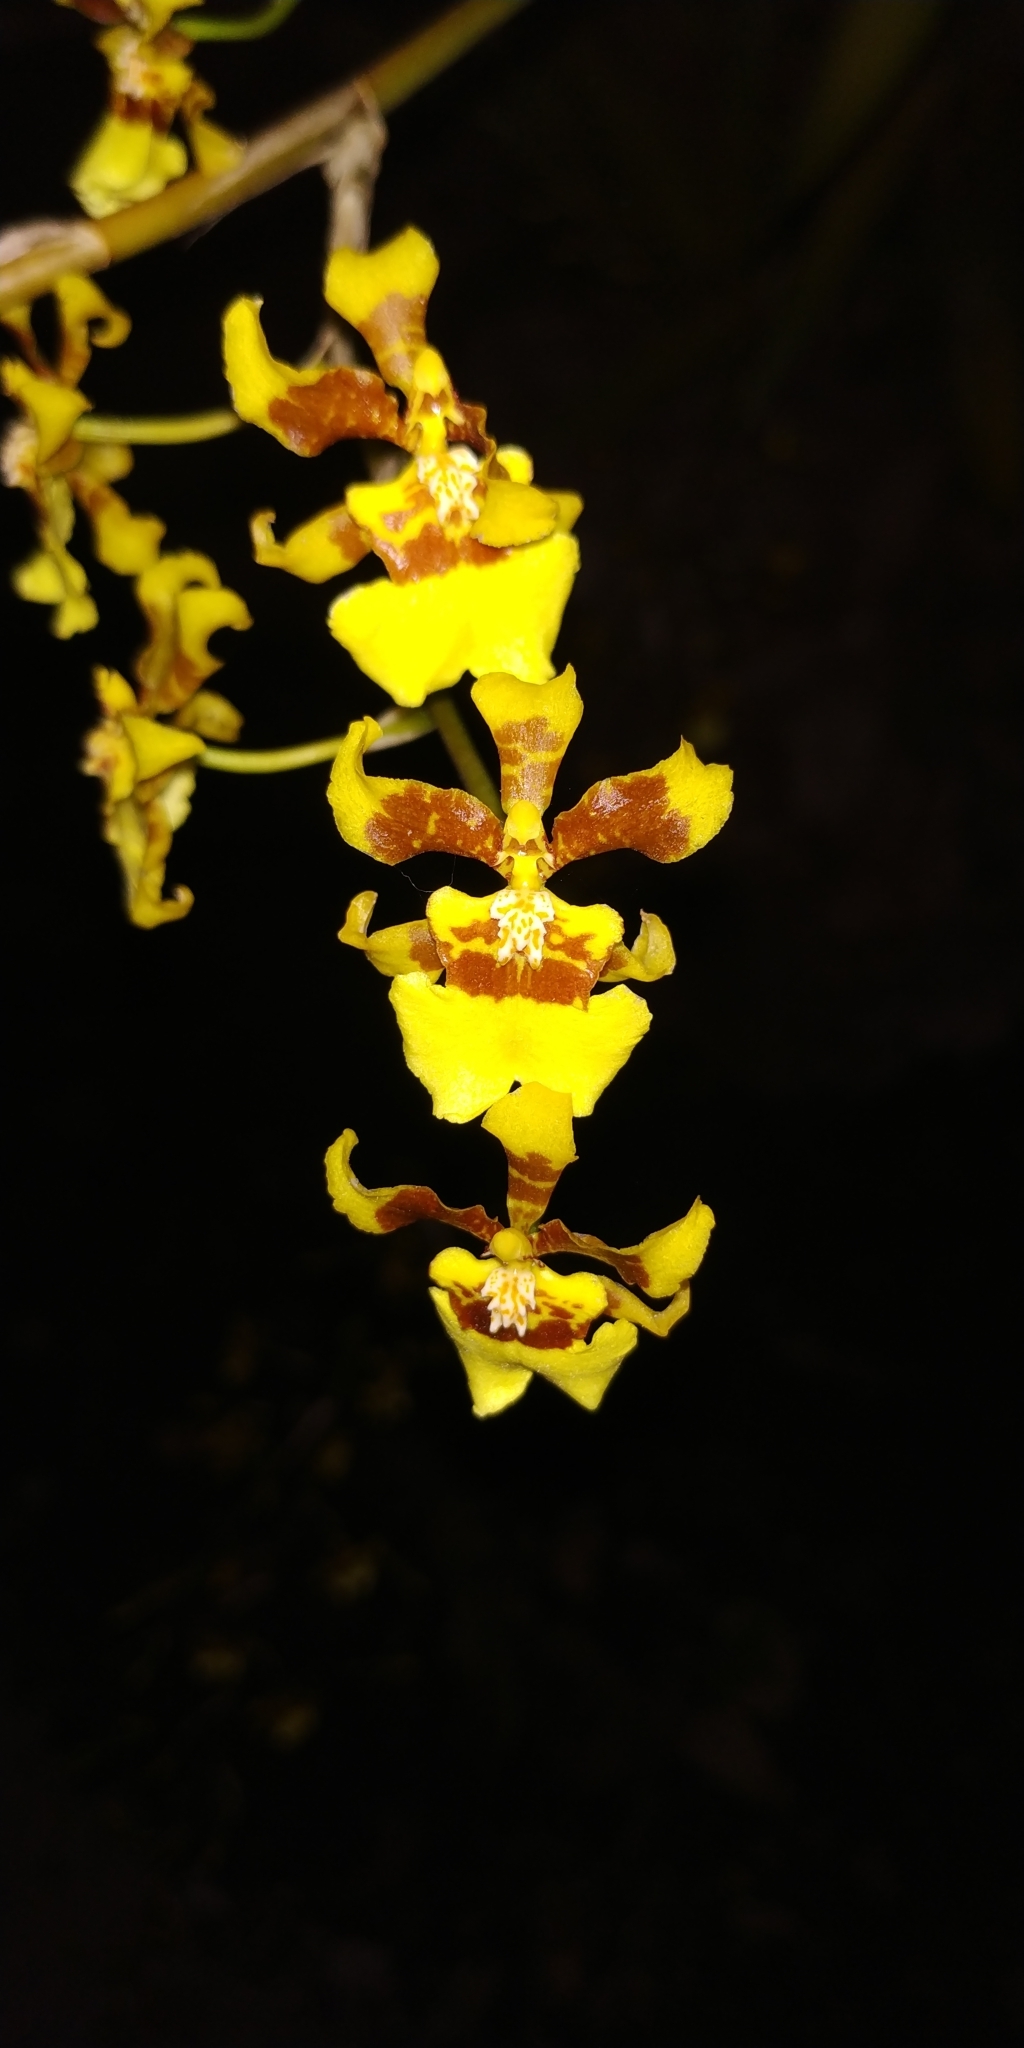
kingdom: Plantae
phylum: Tracheophyta
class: Liliopsida
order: Asparagales
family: Orchidaceae
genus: Oncidium
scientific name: Oncidium sphacelatum
